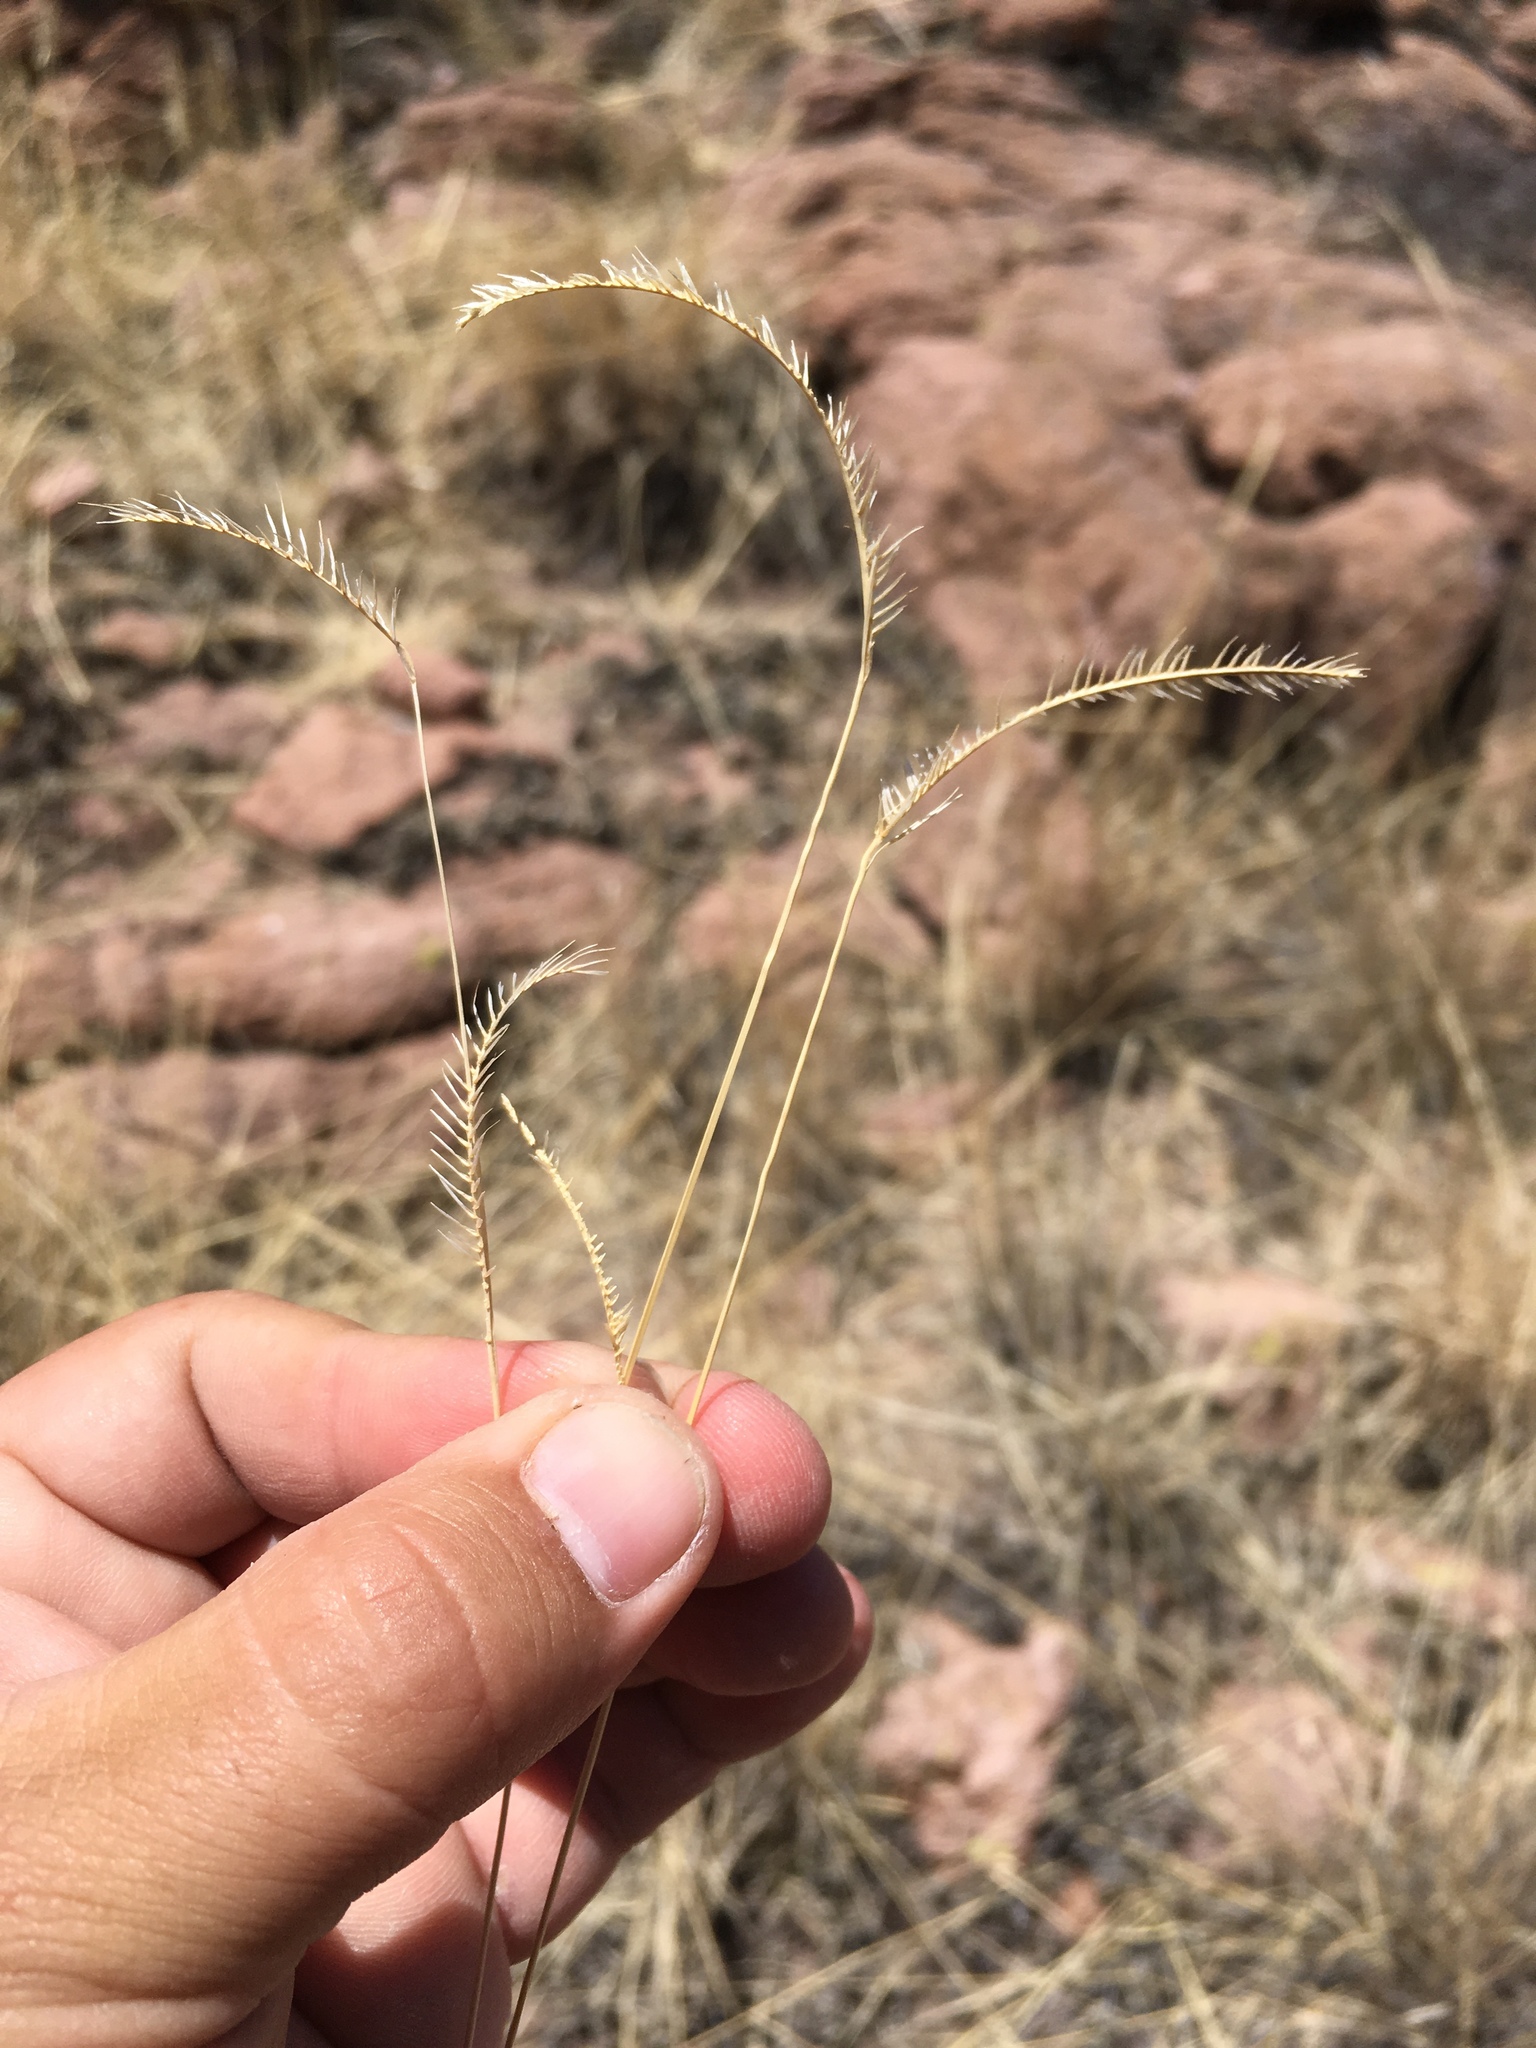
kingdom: Plantae
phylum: Tracheophyta
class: Liliopsida
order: Poales
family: Poaceae
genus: Bouteloua
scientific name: Bouteloua gracilis
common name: Blue grama
